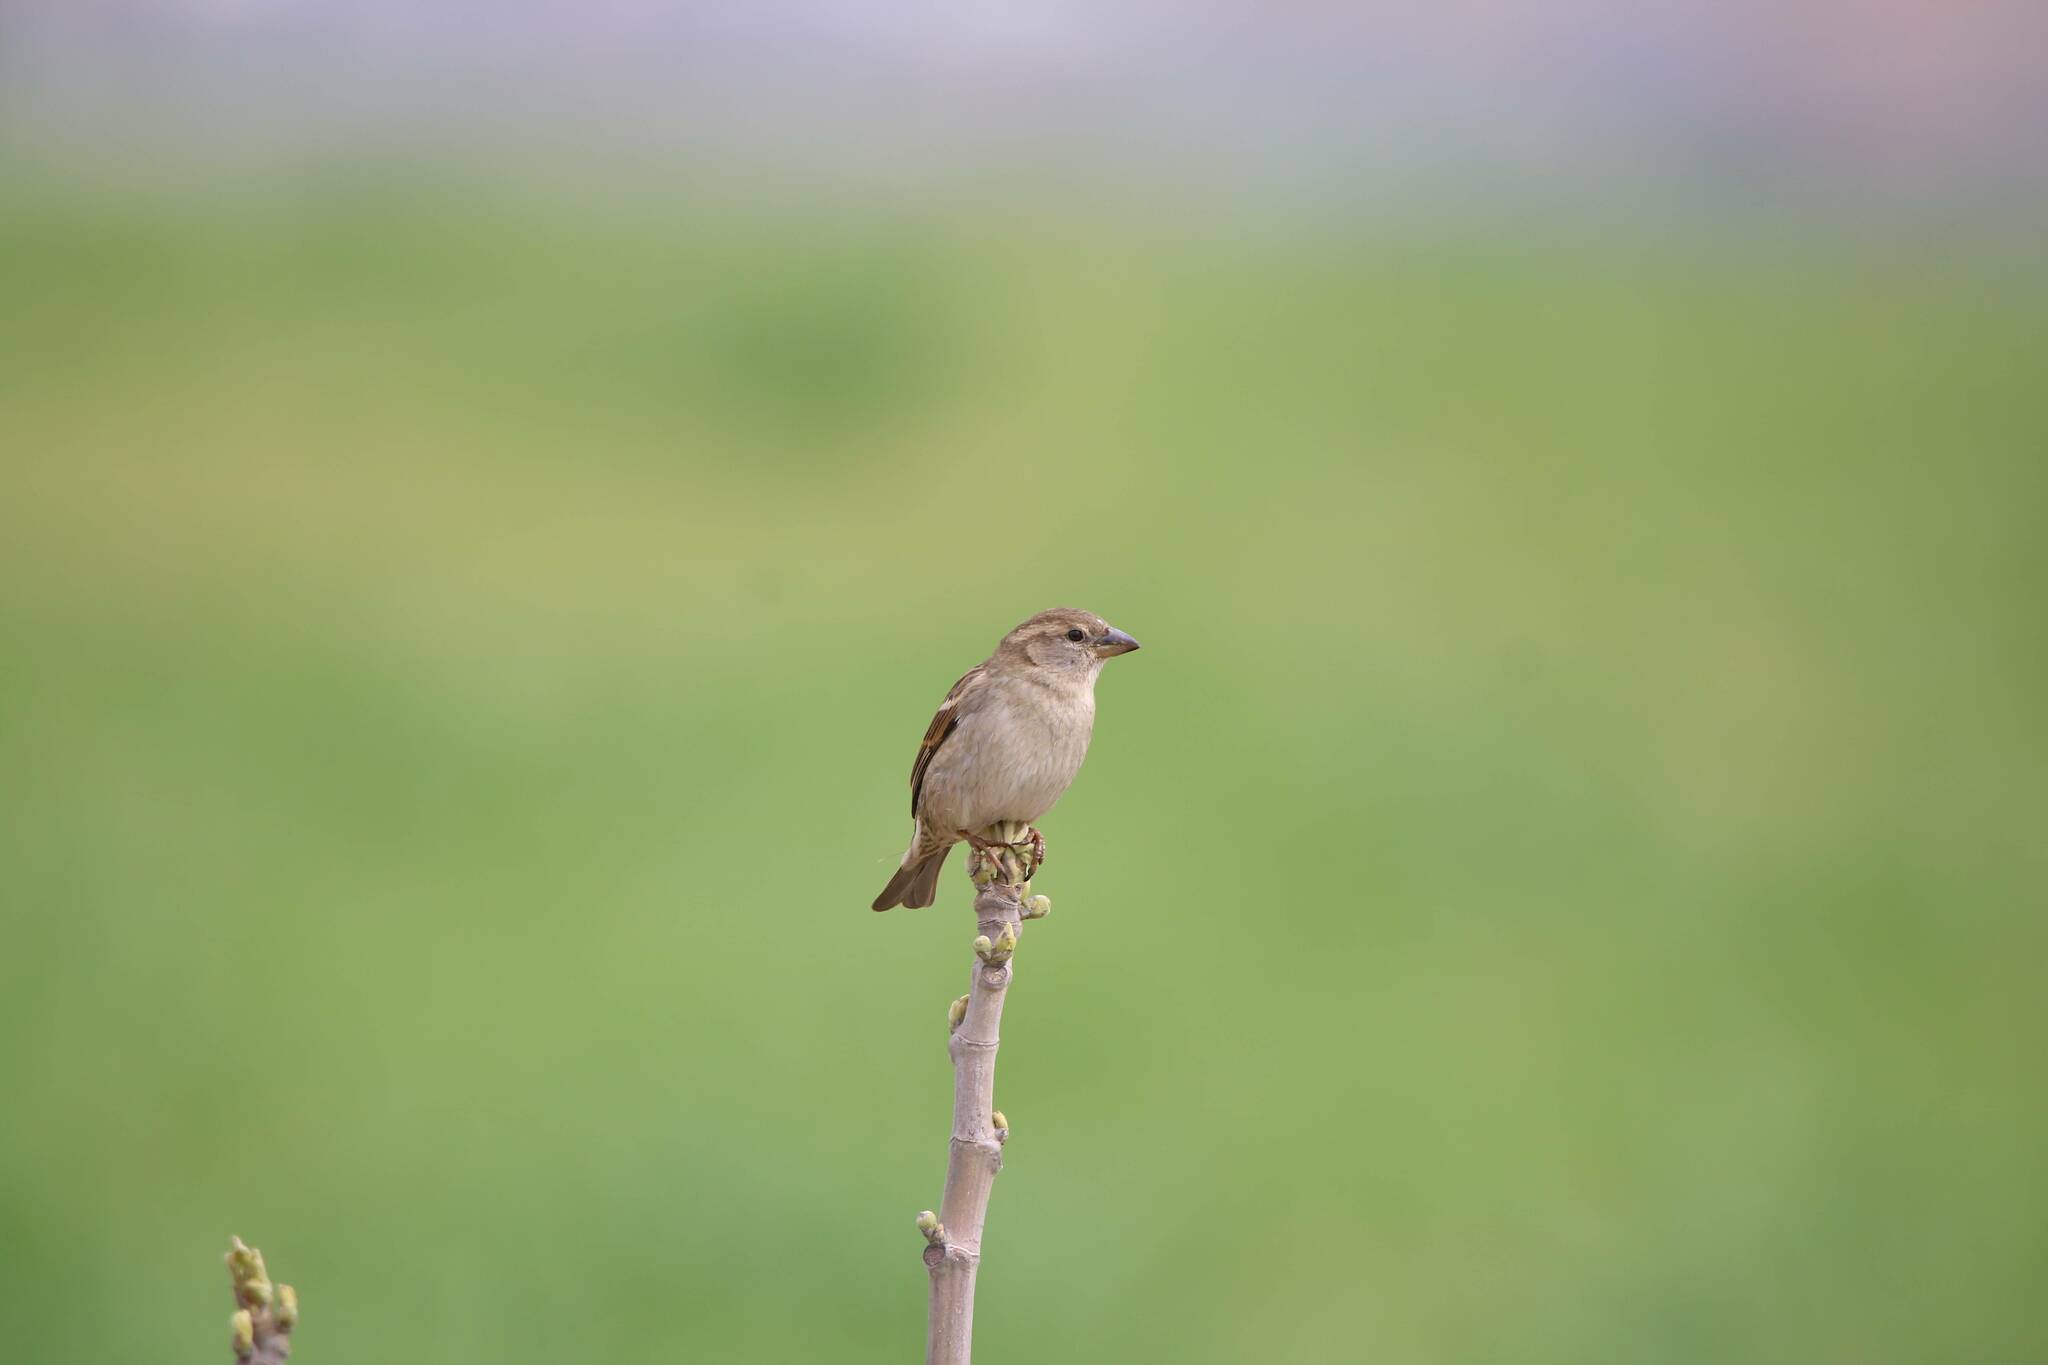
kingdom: Animalia
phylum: Chordata
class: Aves
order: Passeriformes
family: Passeridae
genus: Passer
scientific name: Passer domesticus
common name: House sparrow
